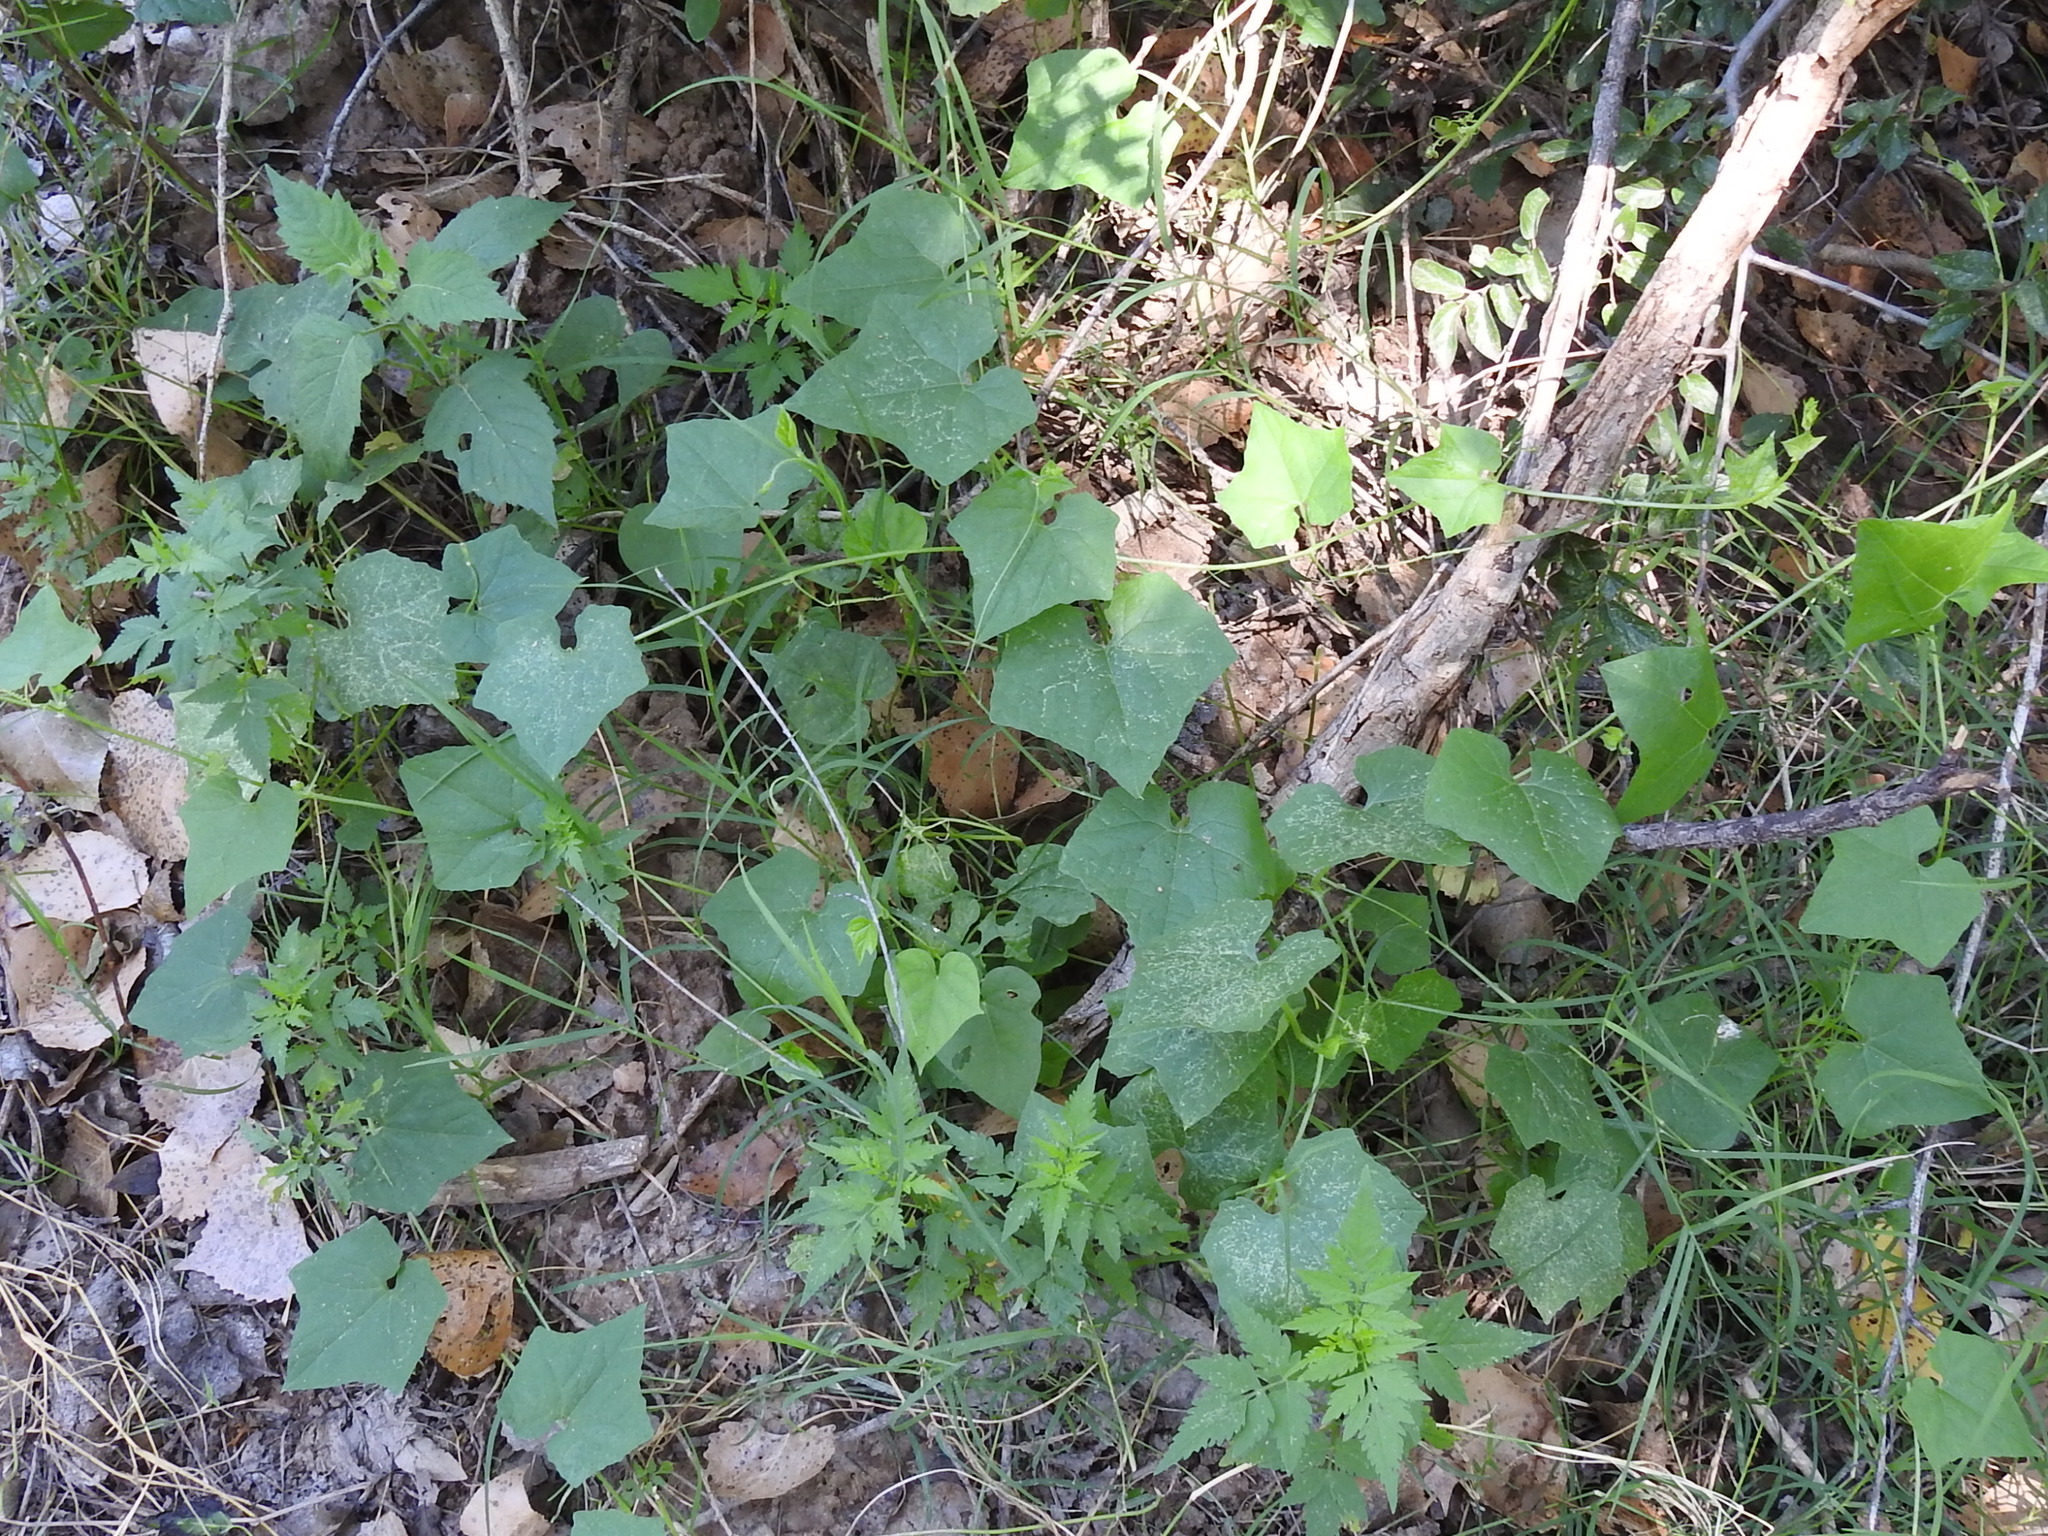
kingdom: Plantae
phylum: Tracheophyta
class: Magnoliopsida
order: Cucurbitales
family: Cucurbitaceae
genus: Sicyosperma
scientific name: Sicyosperma gracile
